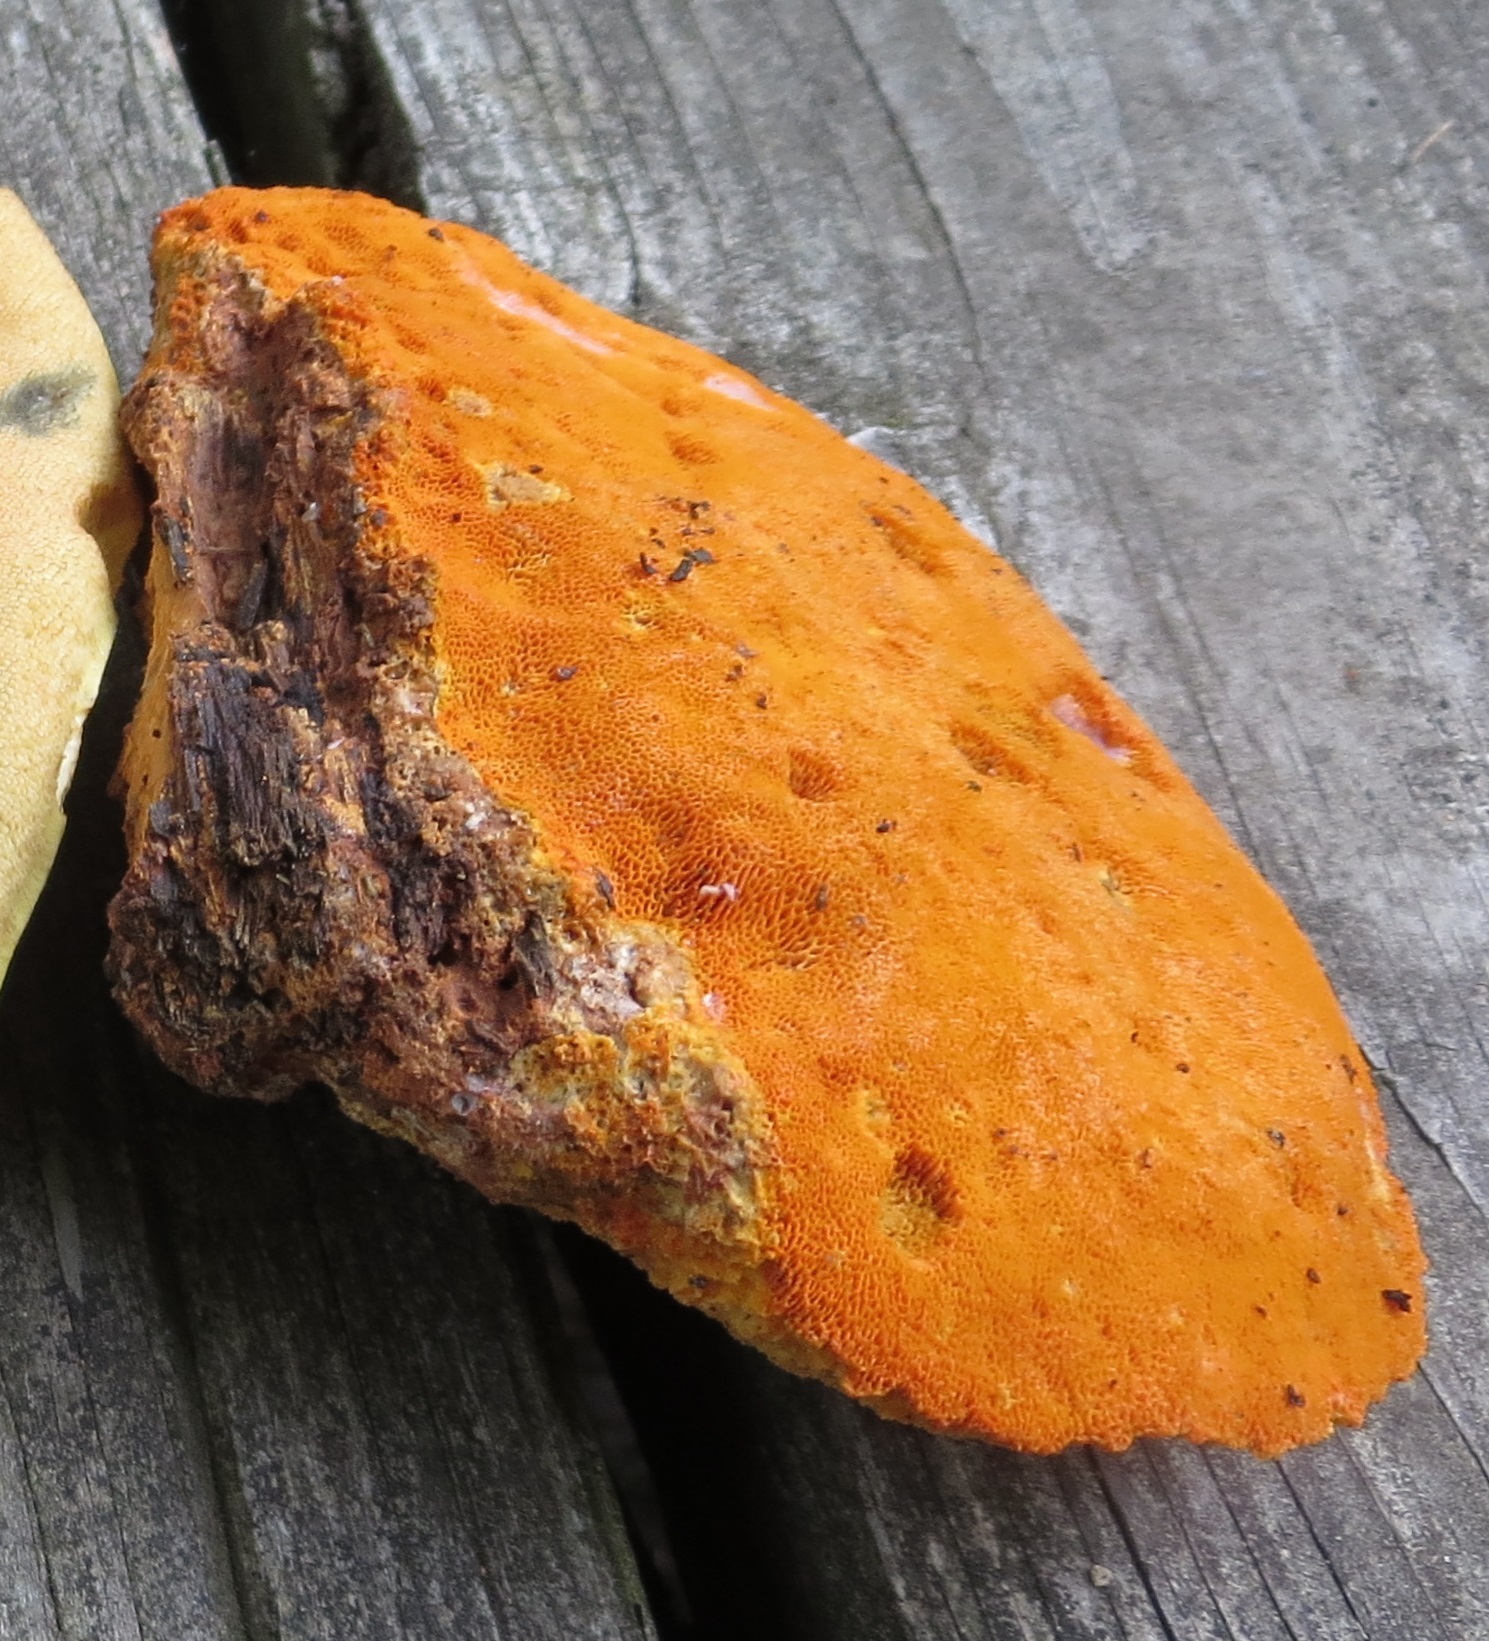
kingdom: Fungi
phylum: Basidiomycota
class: Agaricomycetes
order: Polyporales
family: Phanerochaetaceae
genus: Hapalopilus
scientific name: Hapalopilus croceus
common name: Orange polypore
